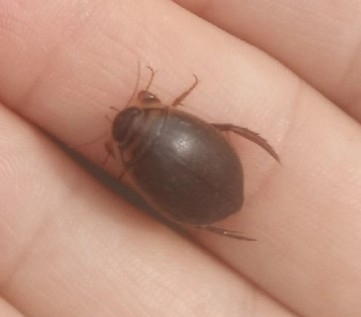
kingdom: Animalia
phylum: Arthropoda
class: Insecta
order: Coleoptera
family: Dytiscidae
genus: Acilius
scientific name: Acilius sulcatus
